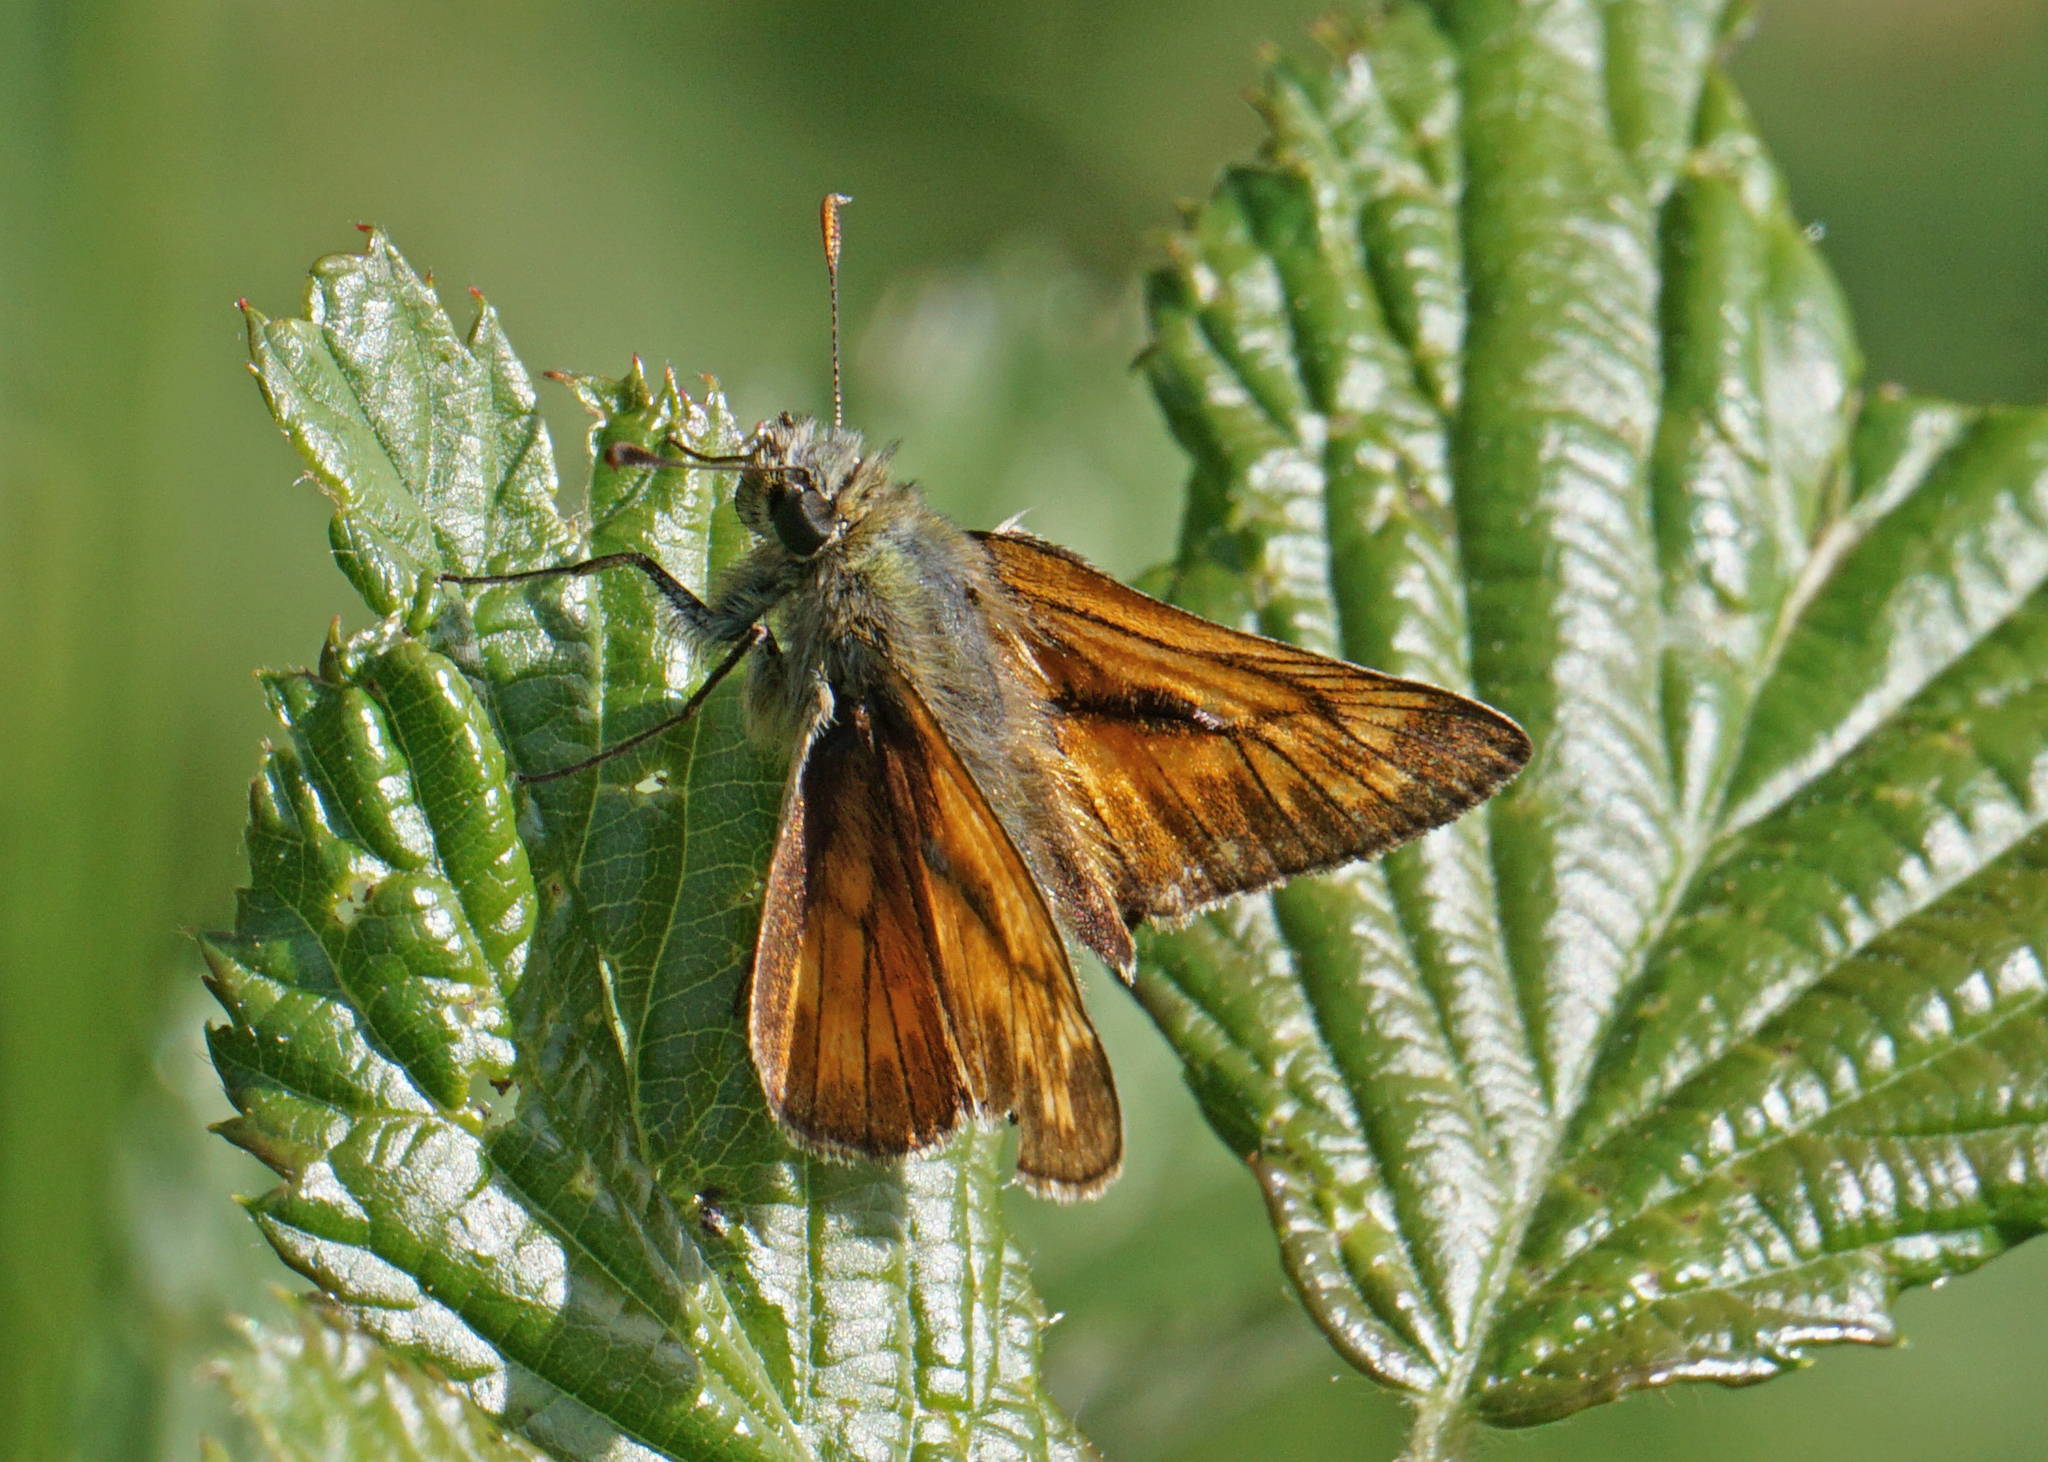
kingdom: Animalia
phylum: Arthropoda
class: Insecta
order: Lepidoptera
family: Hesperiidae
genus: Ochlodes
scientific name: Ochlodes venata
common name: Large skipper
